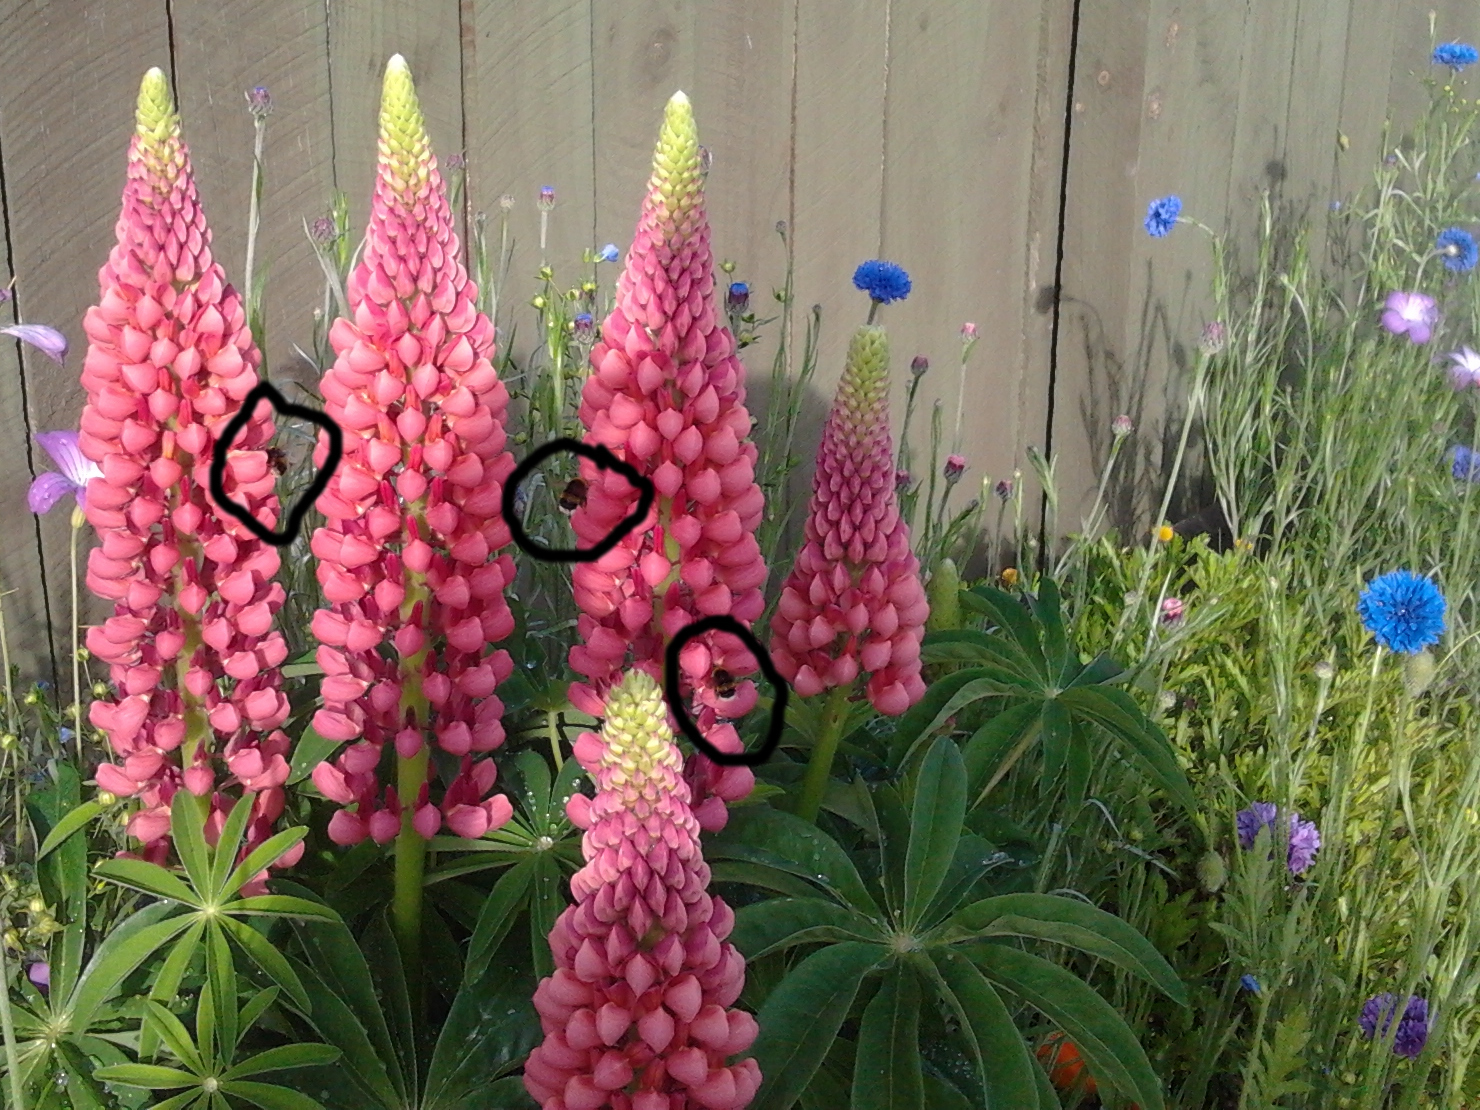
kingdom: Animalia
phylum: Arthropoda
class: Insecta
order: Hymenoptera
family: Apidae
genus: Bombus
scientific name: Bombus terrestris
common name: Buff-tailed bumblebee
